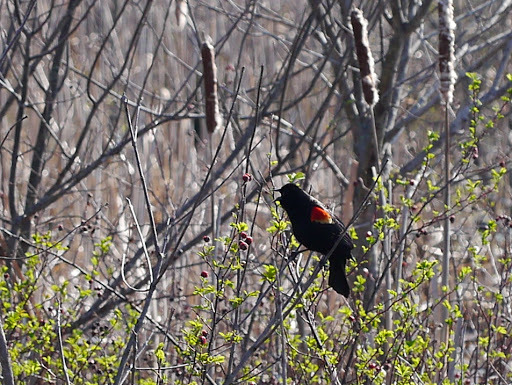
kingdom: Animalia
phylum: Chordata
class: Aves
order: Passeriformes
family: Icteridae
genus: Agelaius
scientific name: Agelaius phoeniceus
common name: Red-winged blackbird
